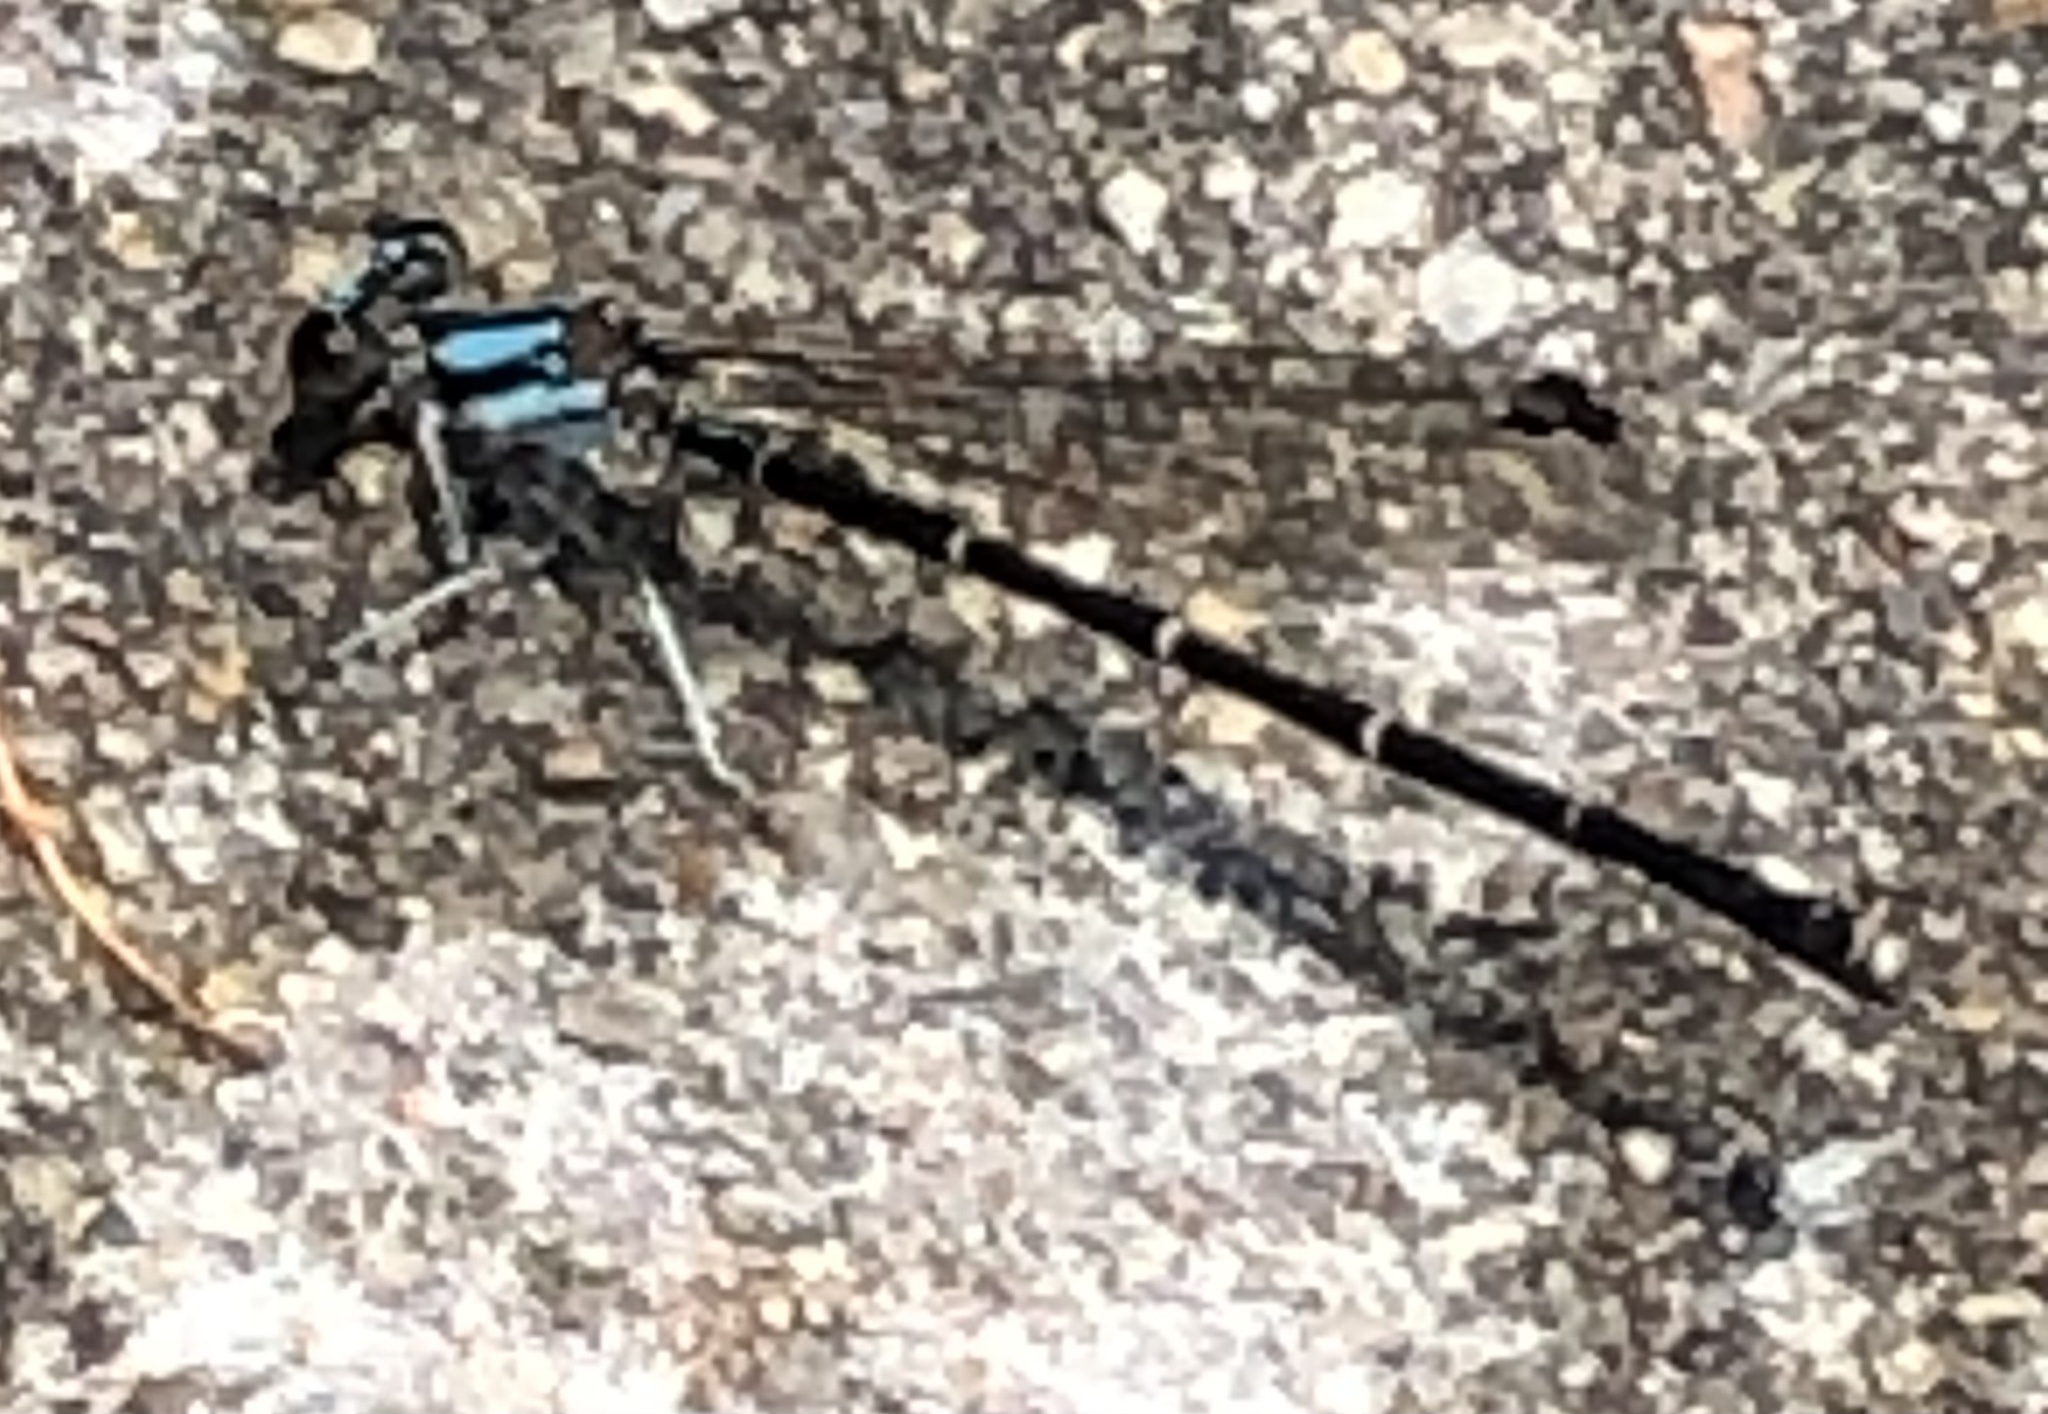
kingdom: Animalia
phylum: Arthropoda
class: Insecta
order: Odonata
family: Coenagrionidae
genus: Argia
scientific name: Argia tibialis
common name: Blue-tipped dancer
